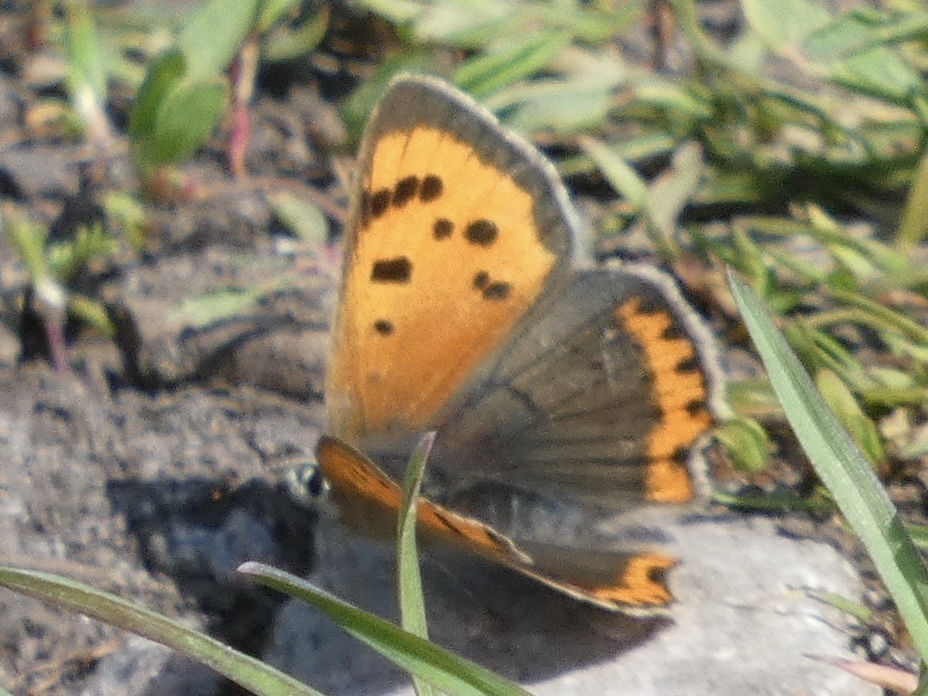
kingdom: Animalia
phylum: Arthropoda
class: Insecta
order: Lepidoptera
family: Lycaenidae
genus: Lycaena
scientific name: Lycaena phlaeas
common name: Small copper
